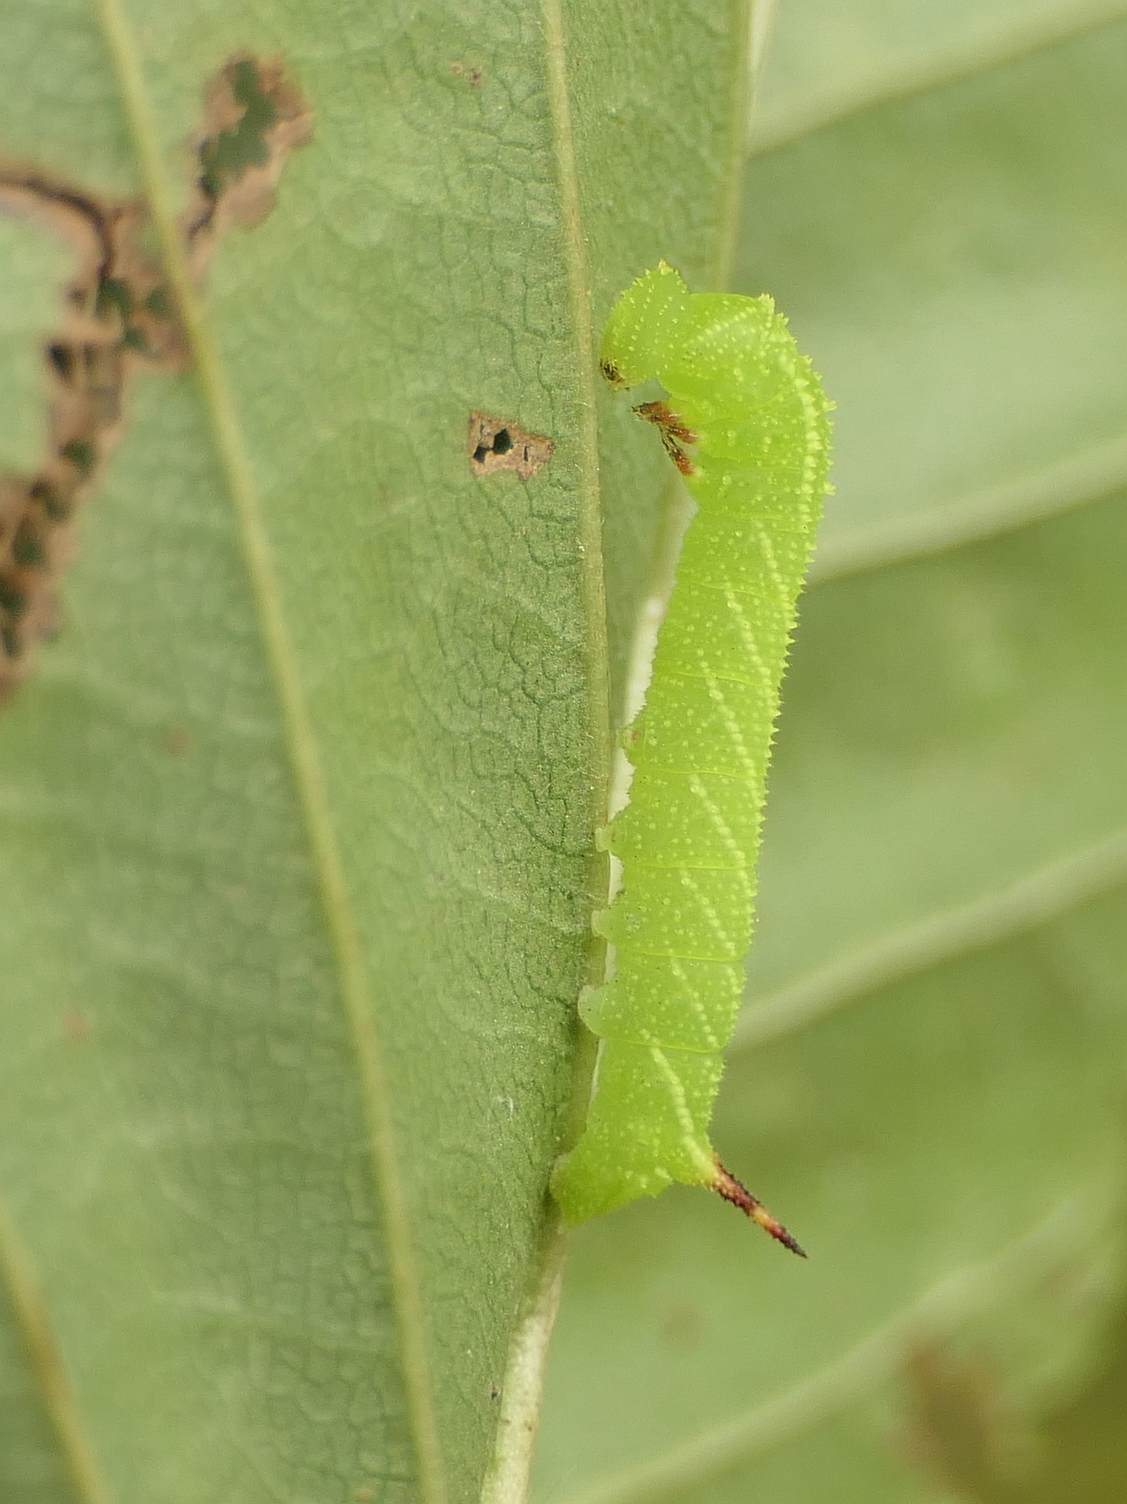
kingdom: Animalia
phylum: Arthropoda
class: Insecta
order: Lepidoptera
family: Sphingidae
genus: Paonias
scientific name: Paonias excaecata
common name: Blind-eyed sphinx
